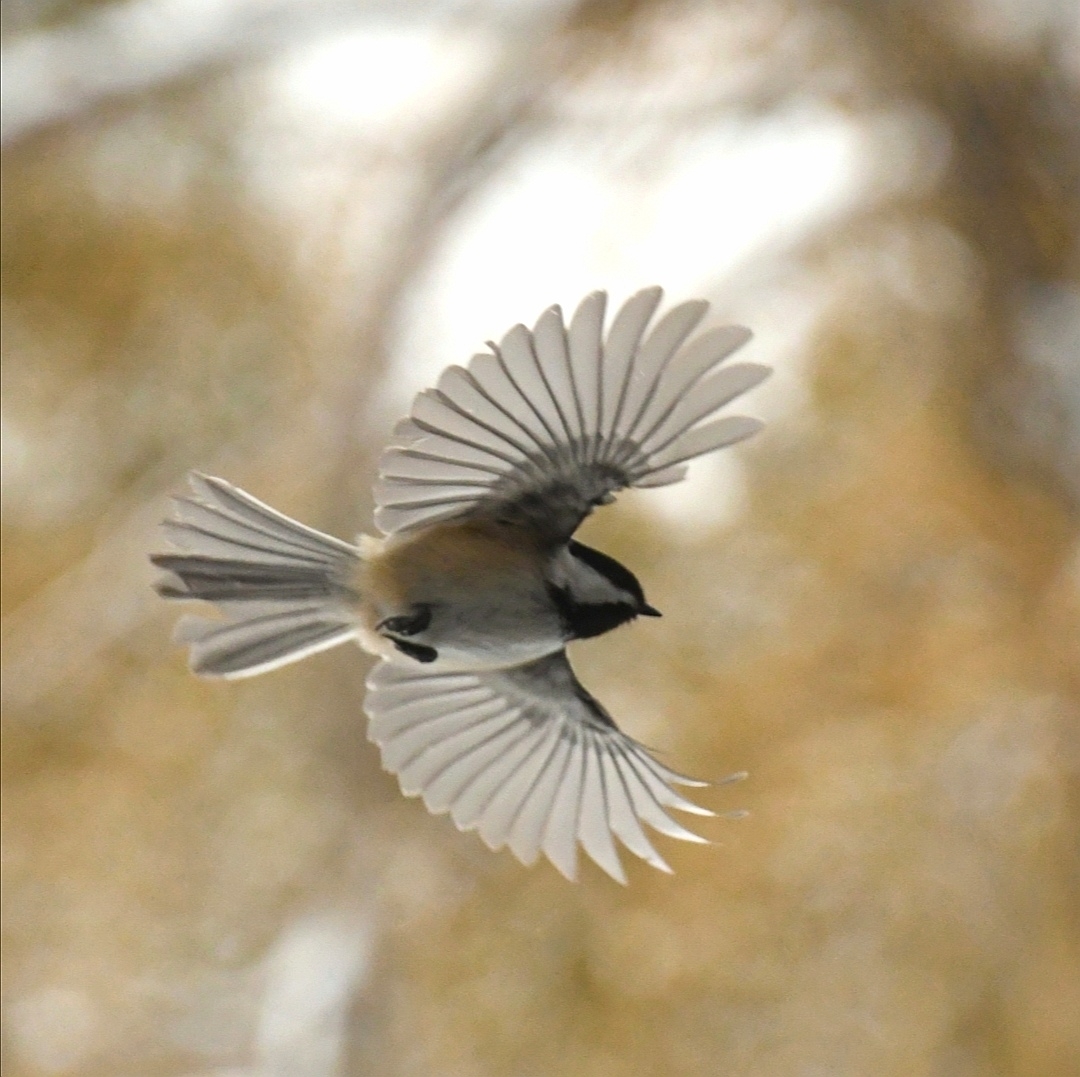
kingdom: Animalia
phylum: Chordata
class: Aves
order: Passeriformes
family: Paridae
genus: Poecile
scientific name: Poecile atricapillus
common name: Black-capped chickadee
